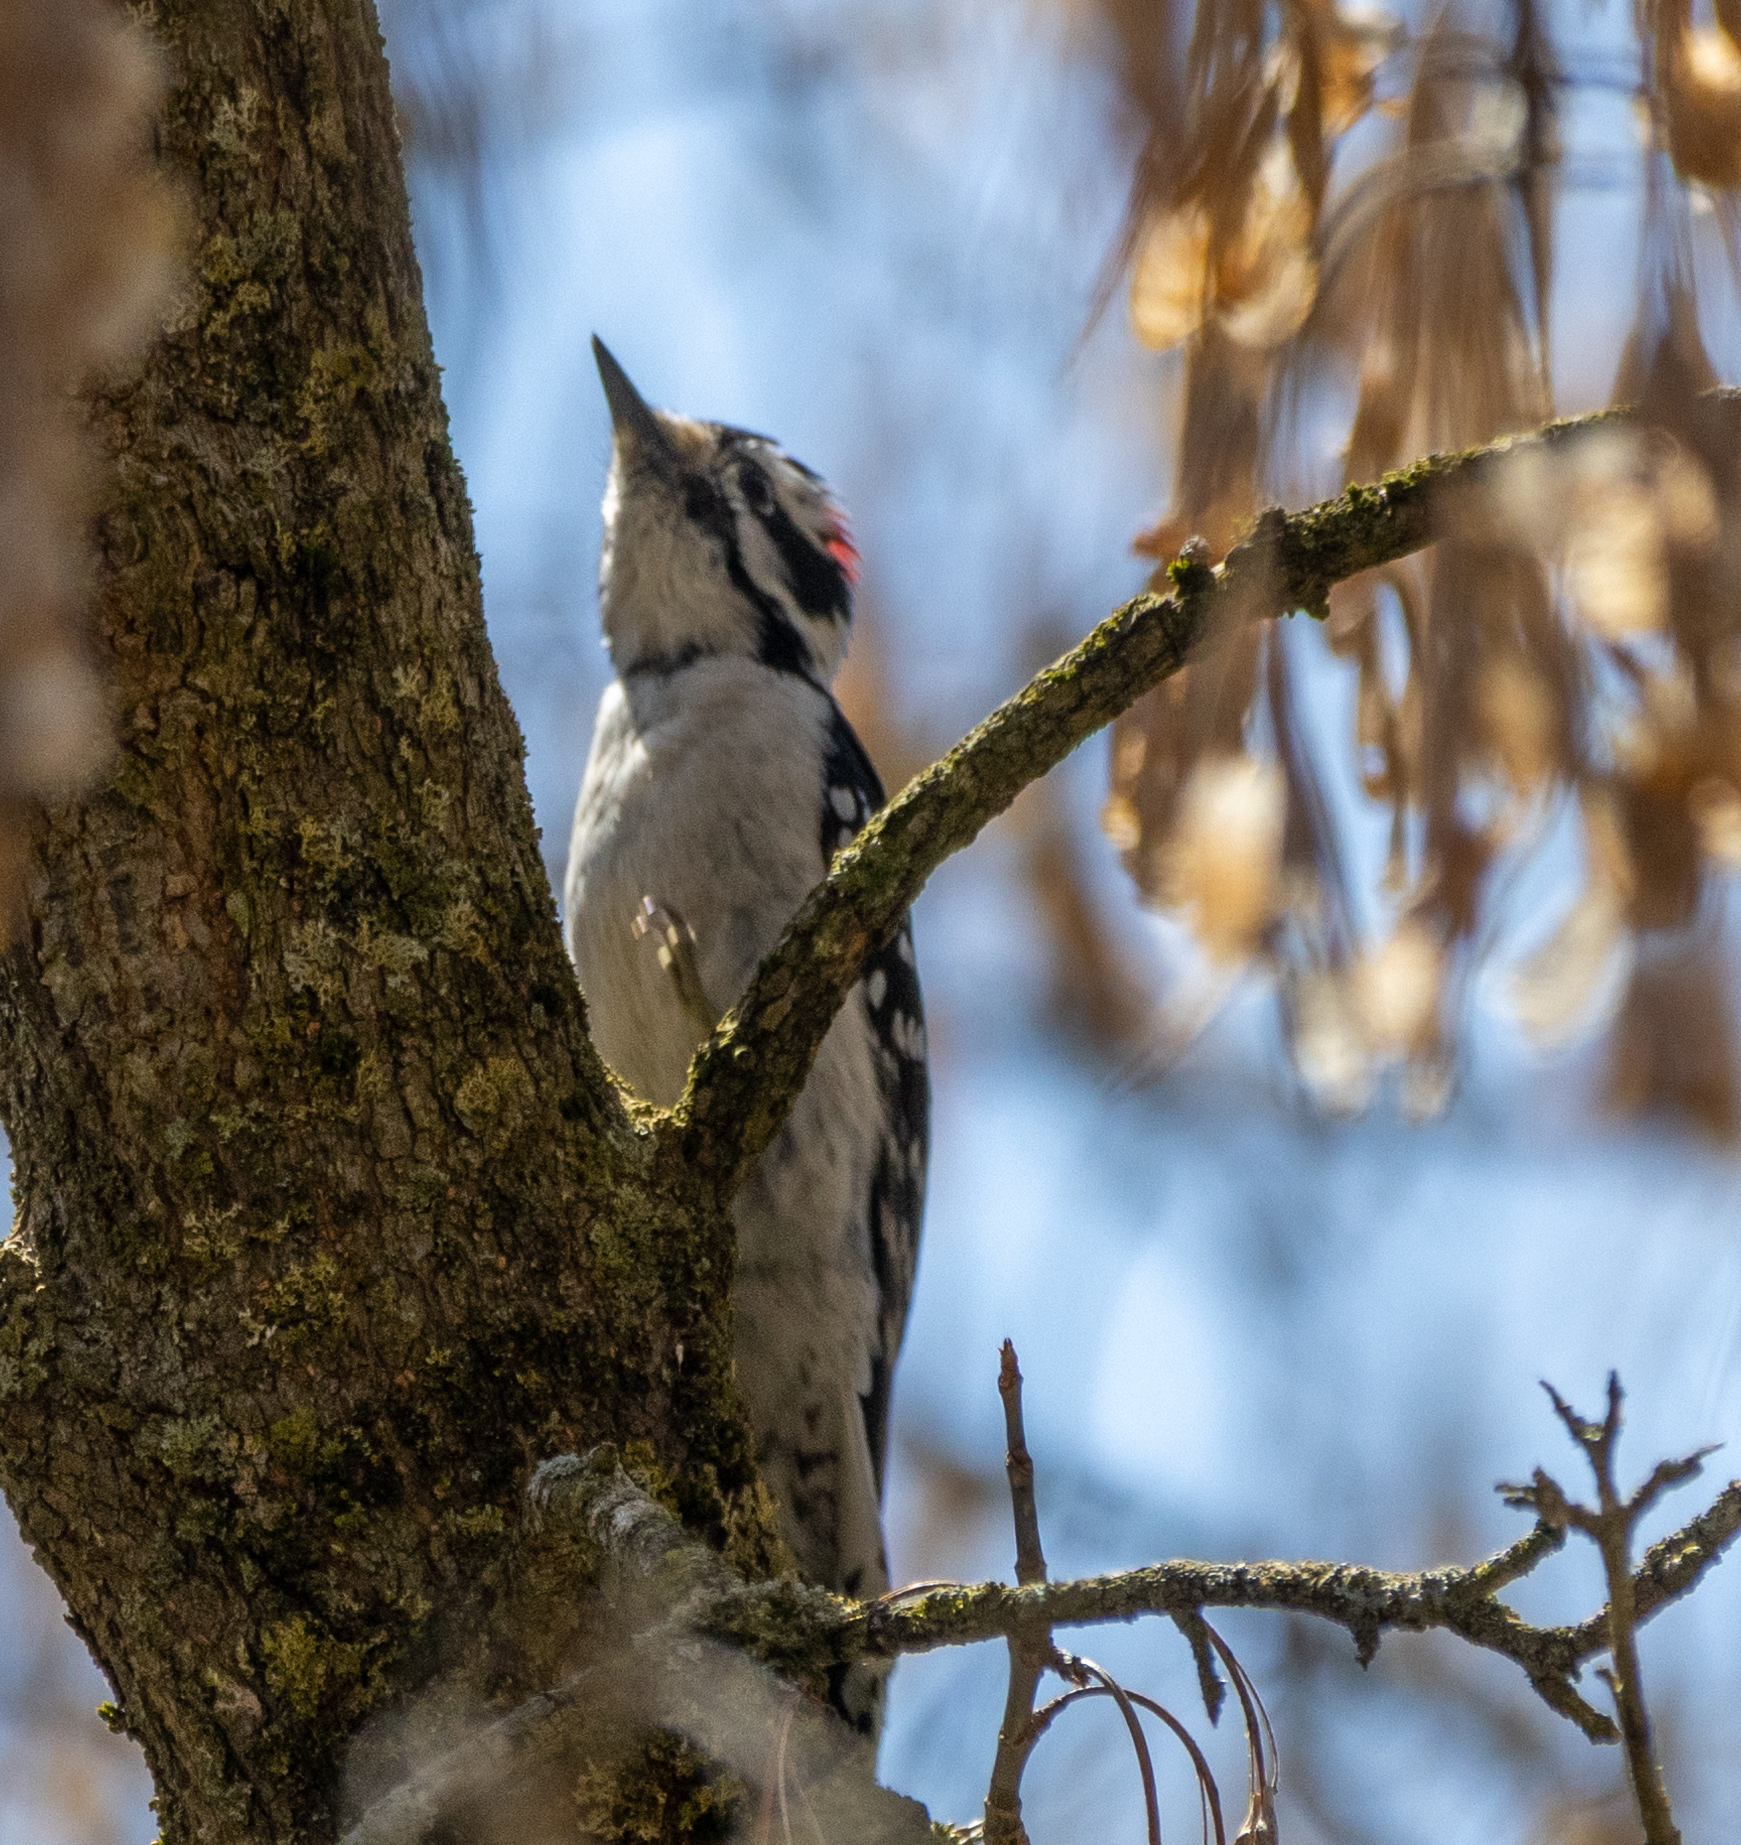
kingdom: Animalia
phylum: Chordata
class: Aves
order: Piciformes
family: Picidae
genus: Dryobates
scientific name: Dryobates pubescens
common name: Downy woodpecker
